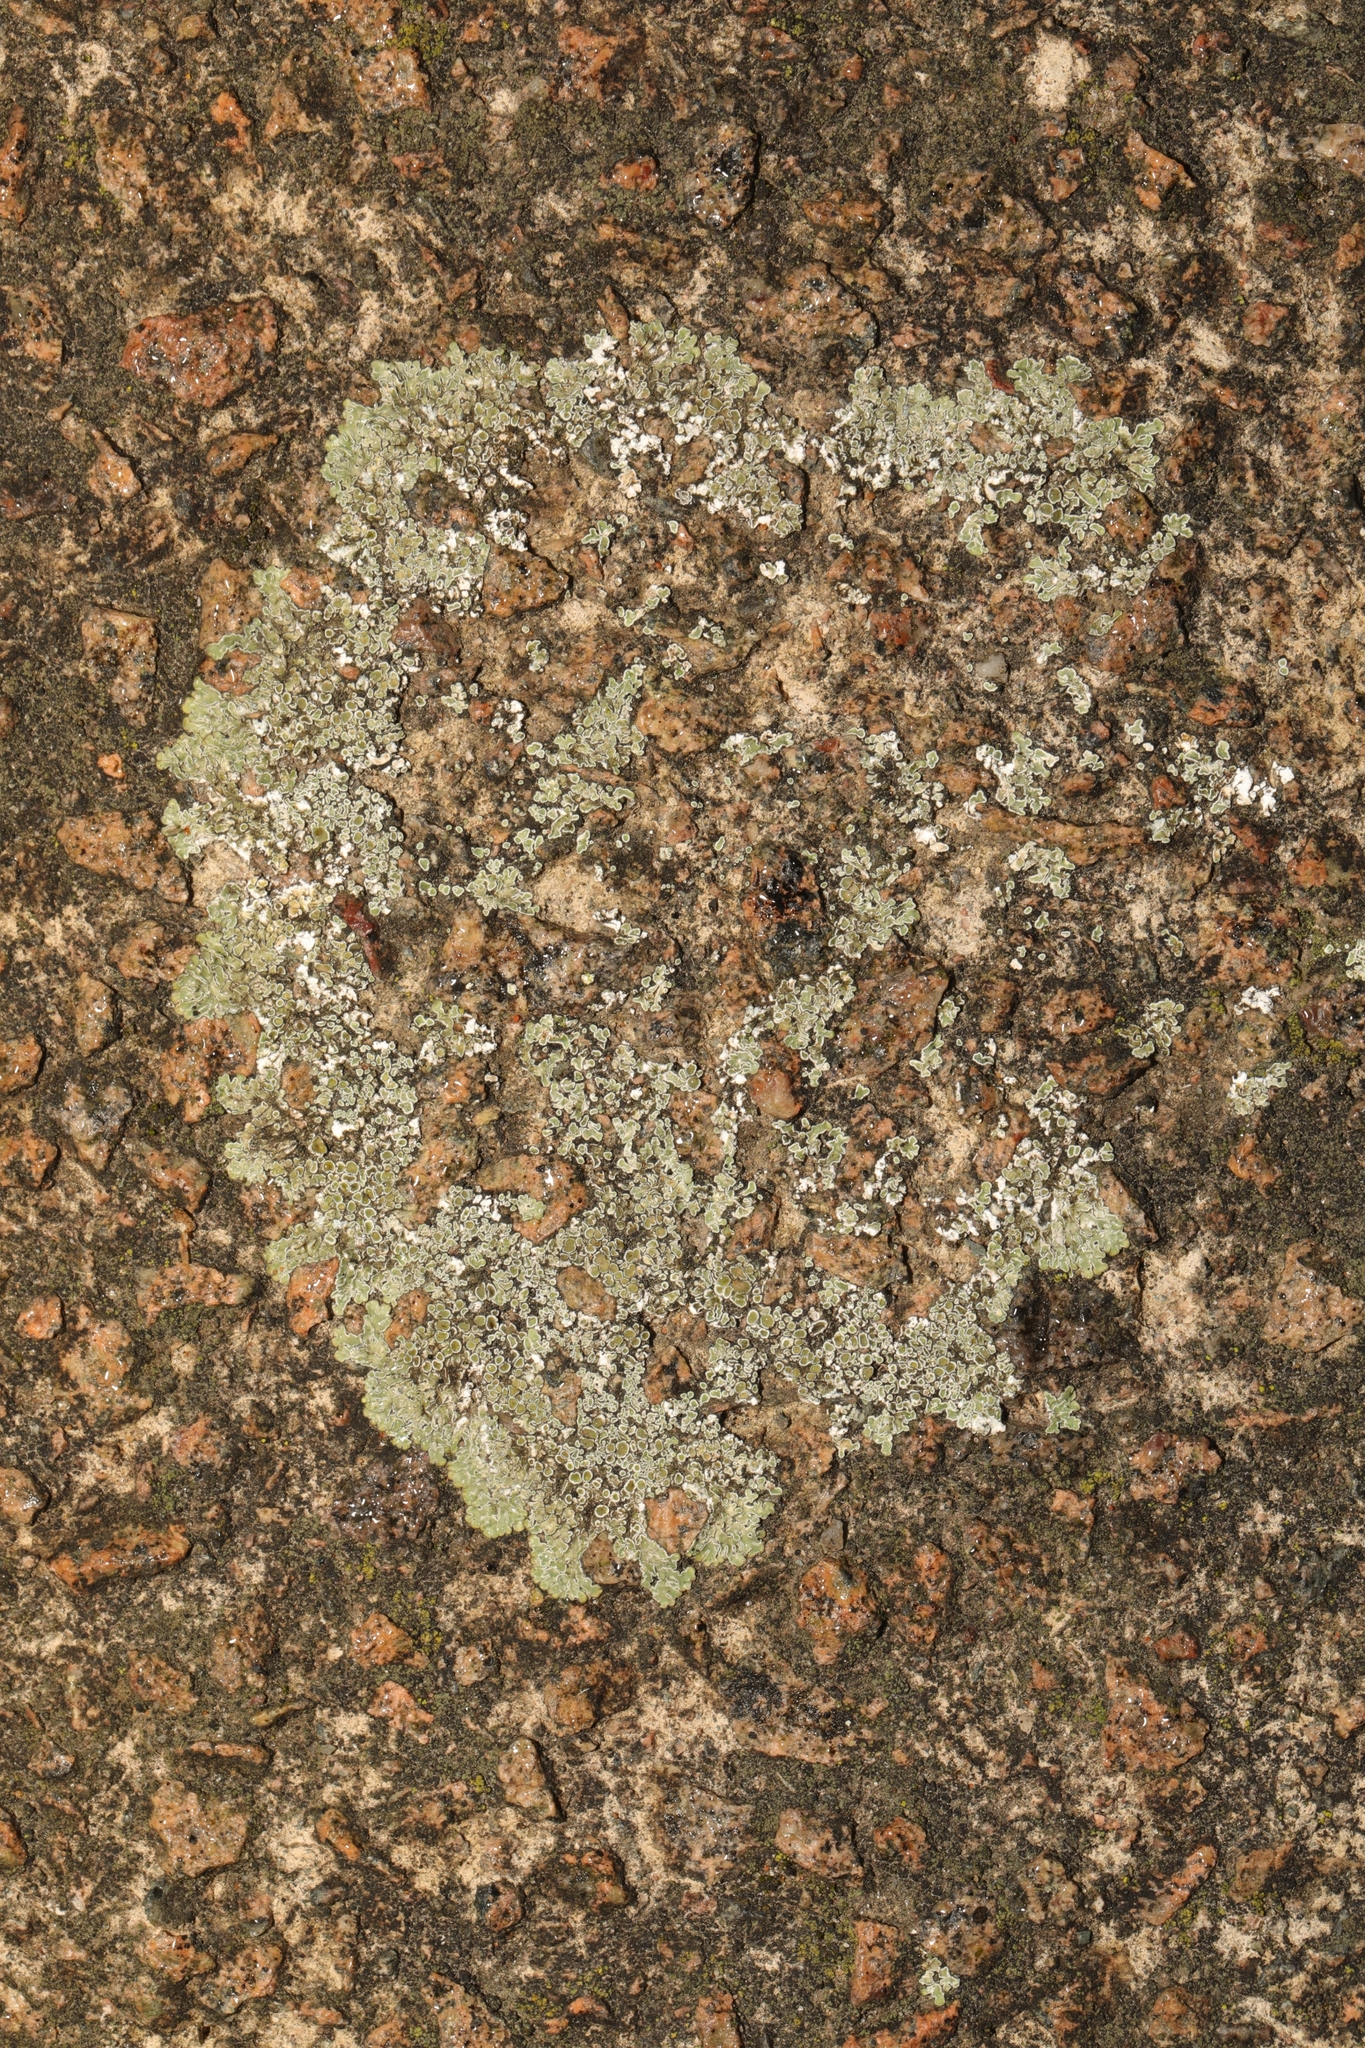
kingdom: Fungi
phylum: Ascomycota
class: Lecanoromycetes
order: Lecanorales
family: Lecanoraceae
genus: Protoparmeliopsis
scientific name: Protoparmeliopsis muralis
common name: Stonewall rim lichen
